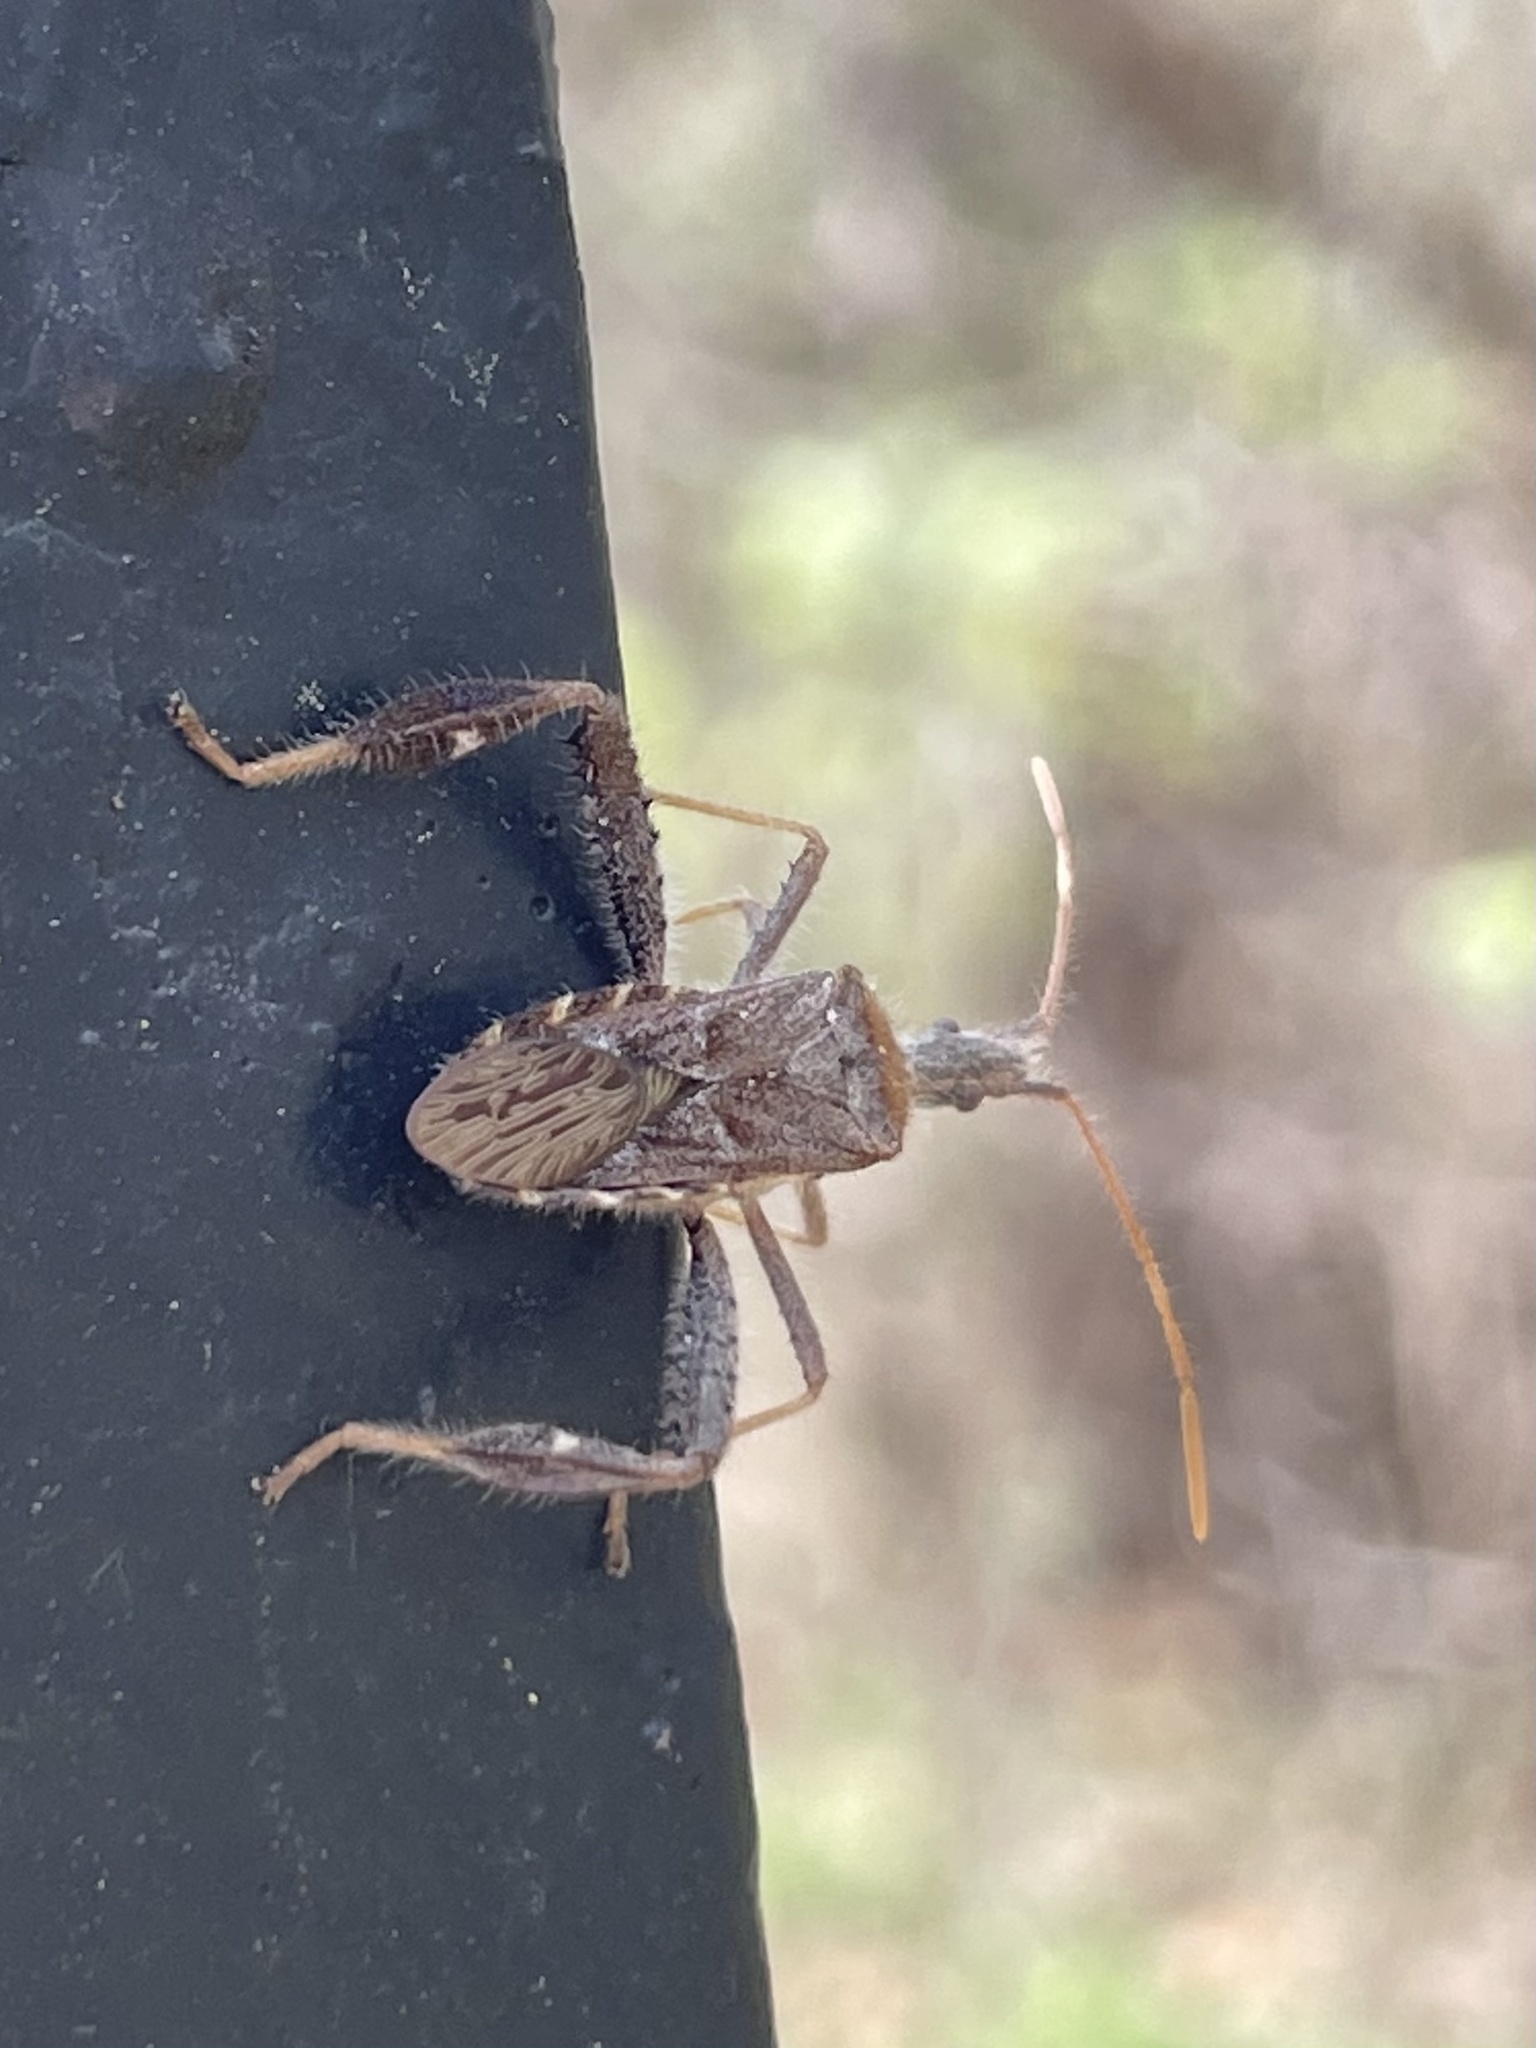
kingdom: Animalia
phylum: Arthropoda
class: Insecta
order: Hemiptera
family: Coreidae
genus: Narnia
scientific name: Narnia femorata
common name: Leaf-footed cactus bug
